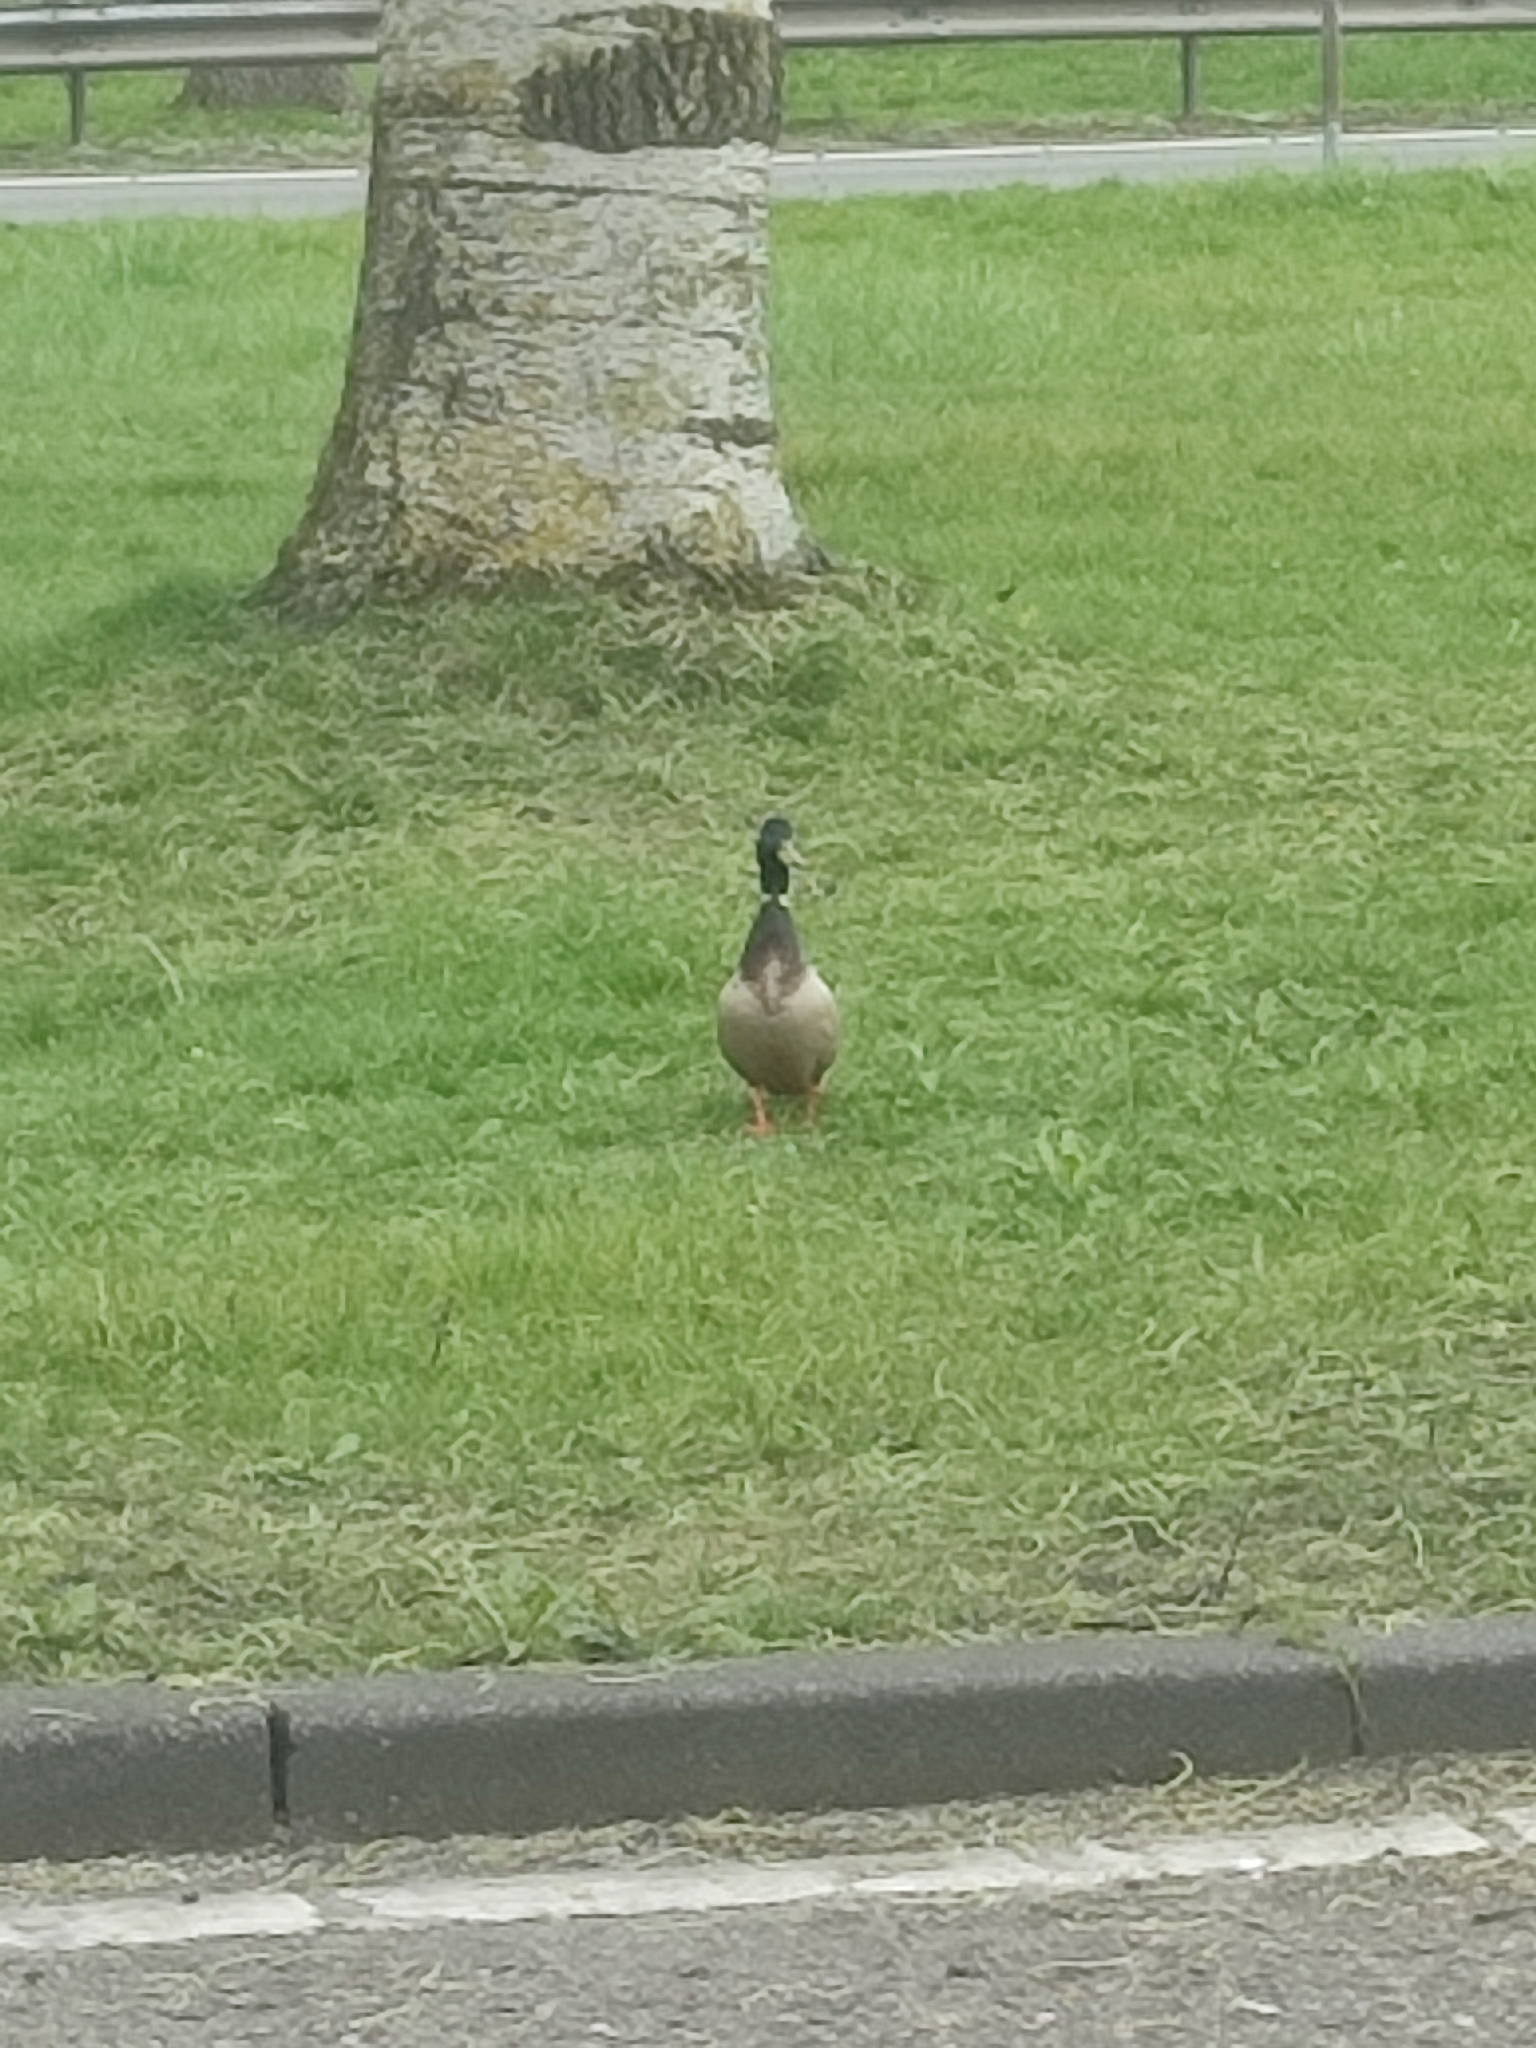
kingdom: Animalia
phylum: Chordata
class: Aves
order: Anseriformes
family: Anatidae
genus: Anas
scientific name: Anas platyrhynchos
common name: Mallard
